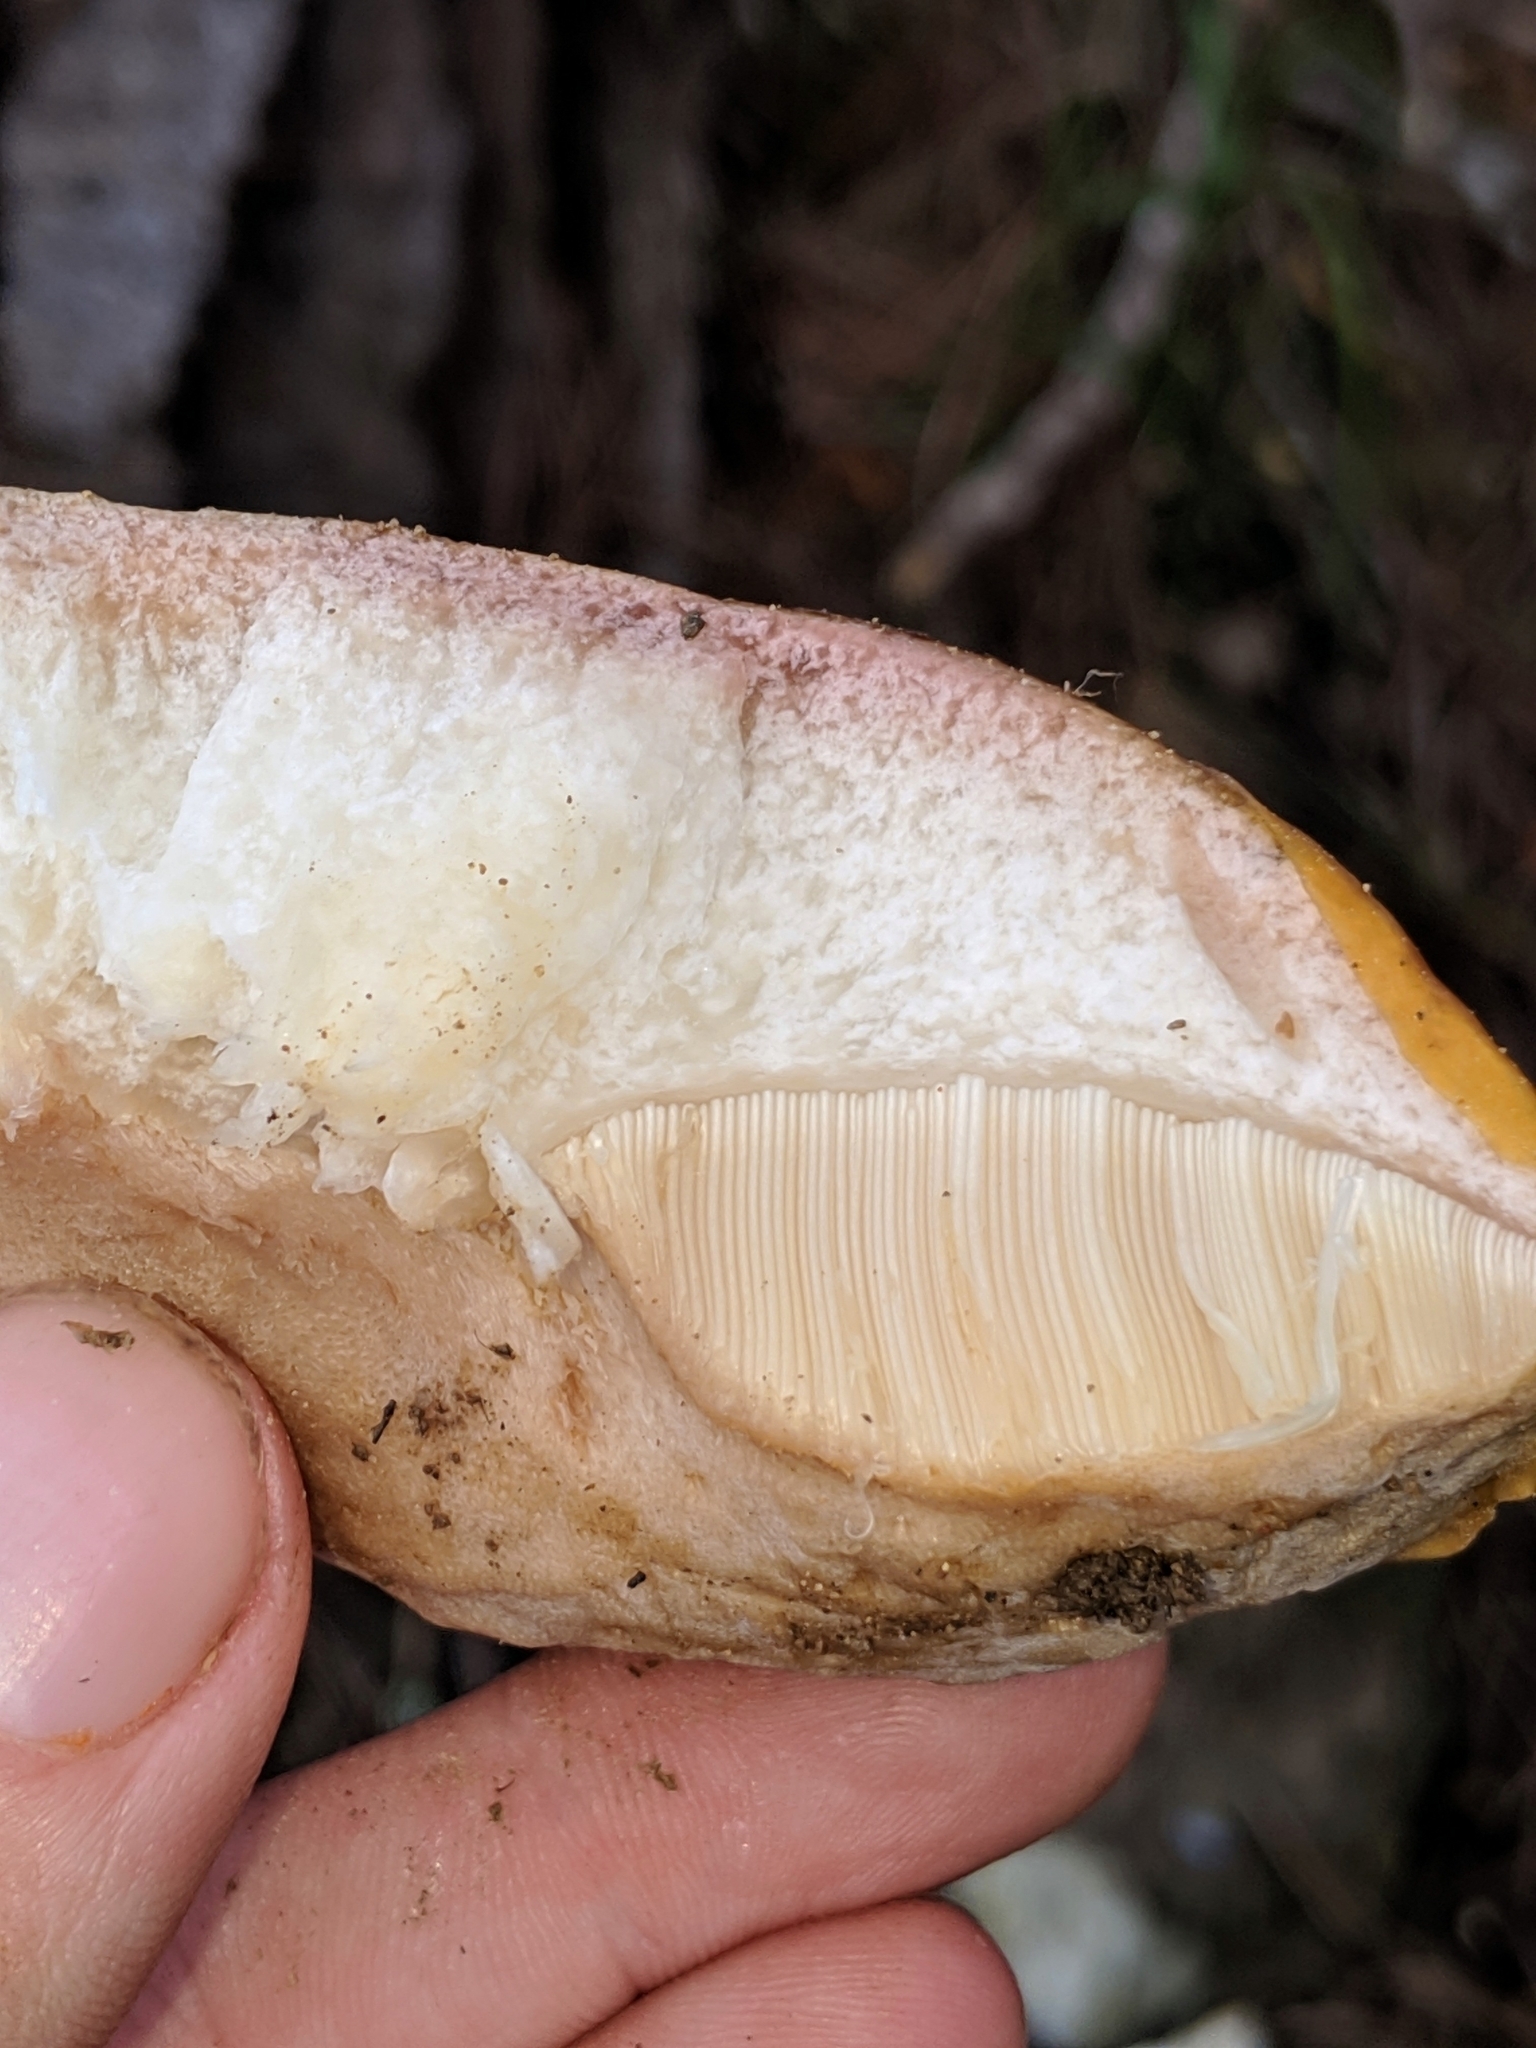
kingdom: Fungi
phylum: Basidiomycota
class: Agaricomycetes
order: Boletales
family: Boletaceae
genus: Boletus
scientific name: Boletus edulis
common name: Cep
